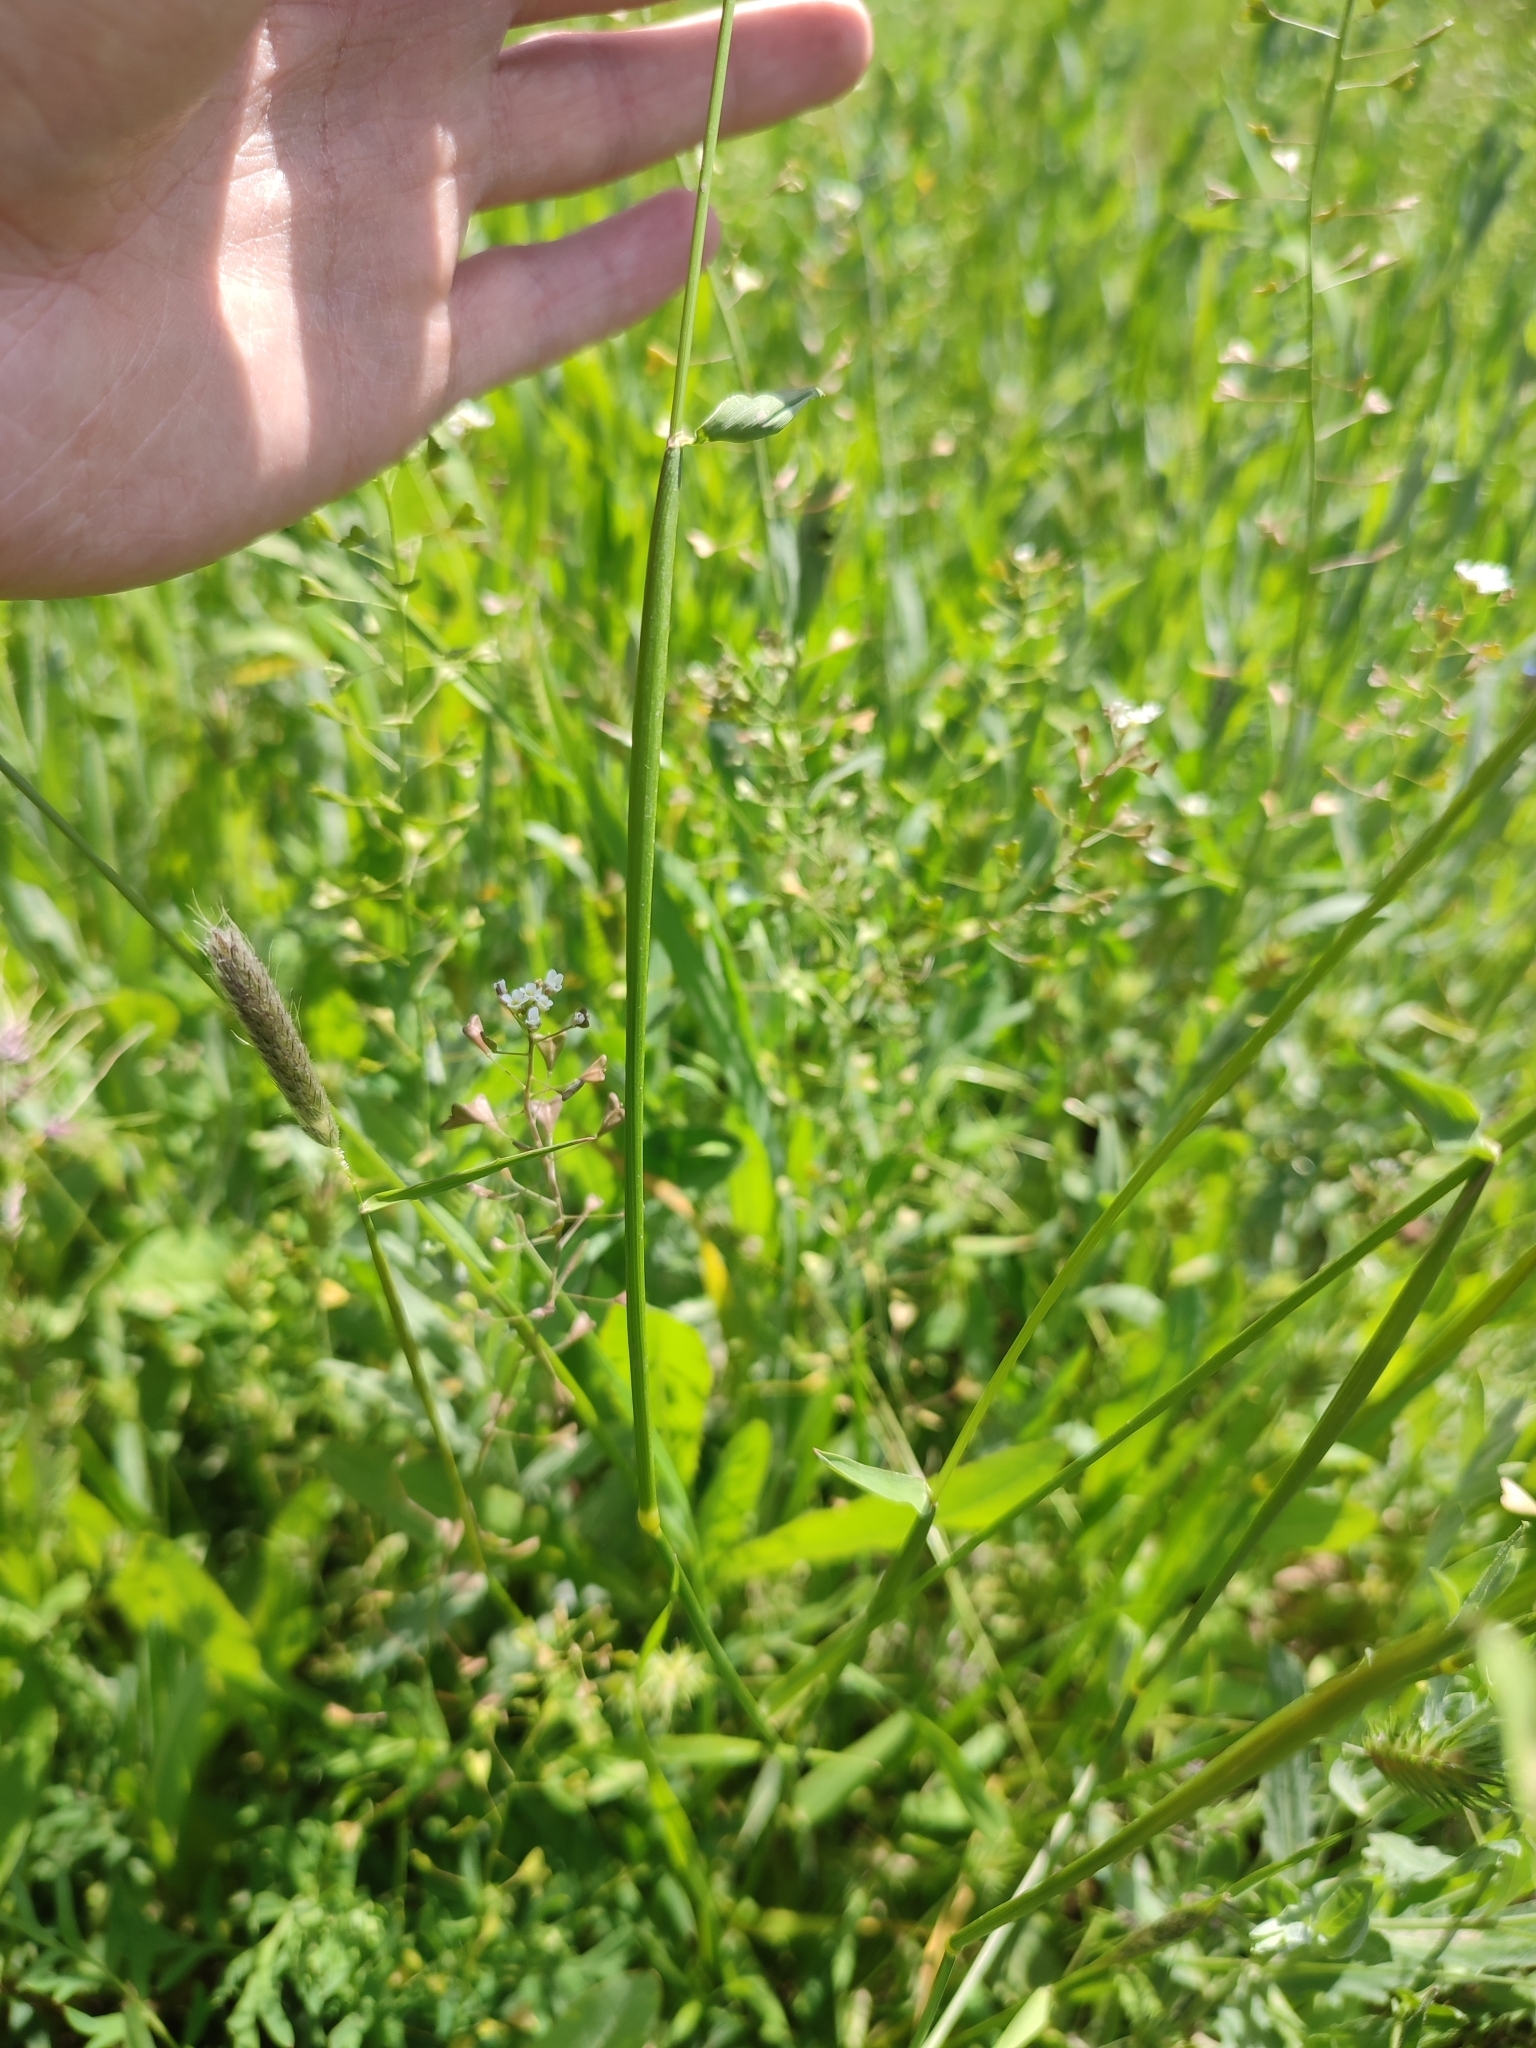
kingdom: Plantae
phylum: Tracheophyta
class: Liliopsida
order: Poales
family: Poaceae
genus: Alopecurus
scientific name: Alopecurus pratensis
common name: Meadow foxtail
